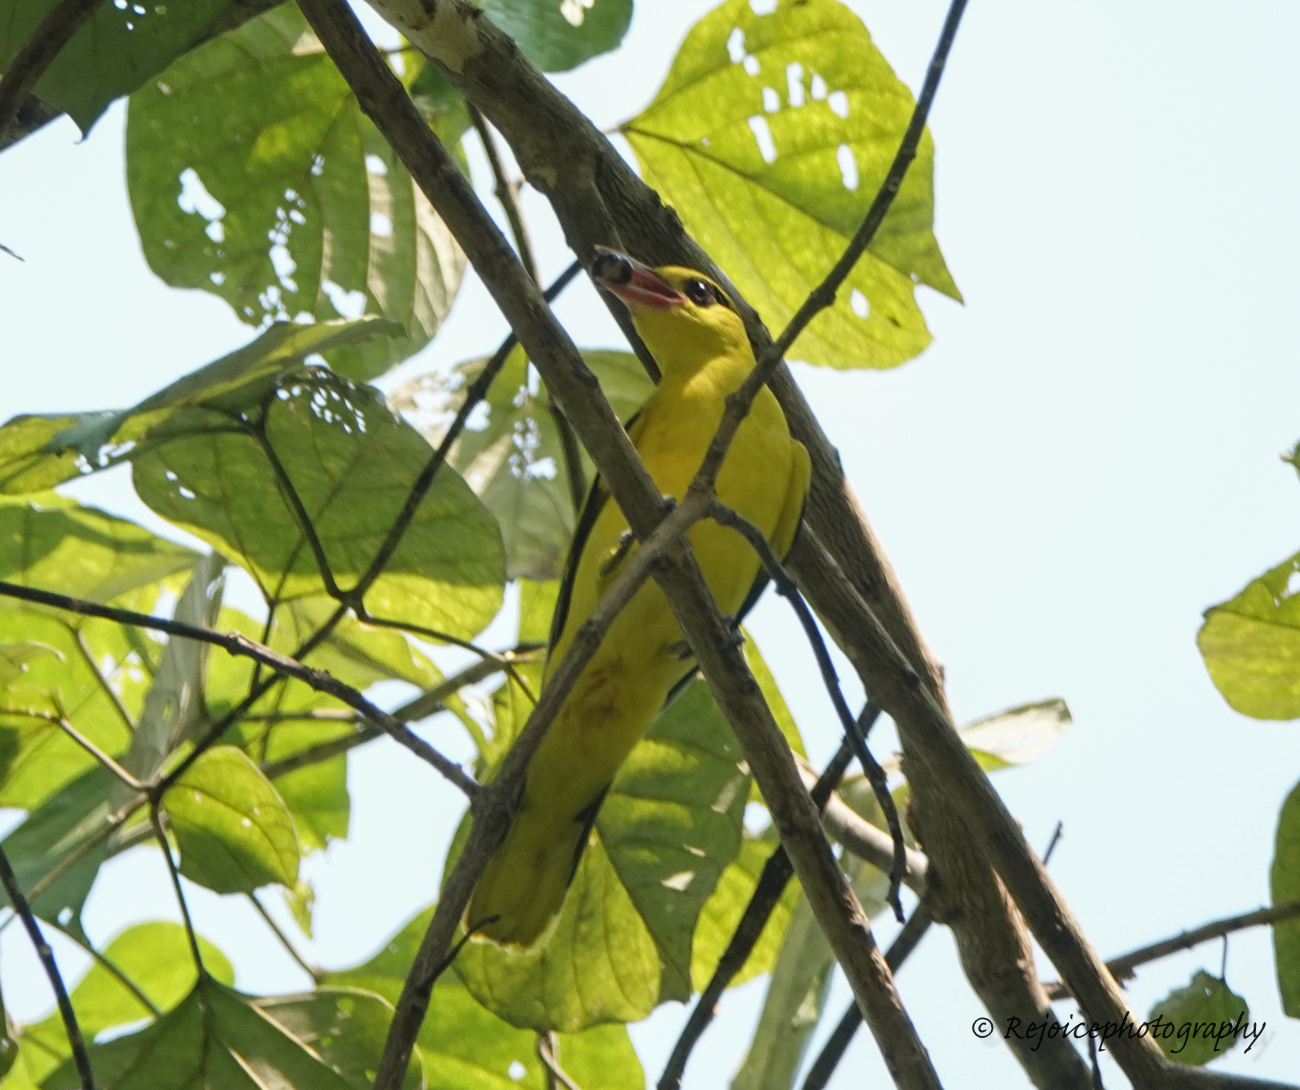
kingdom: Animalia
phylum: Chordata
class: Aves
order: Passeriformes
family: Oriolidae
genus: Oriolus
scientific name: Oriolus chinensis
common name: Black-naped oriole
